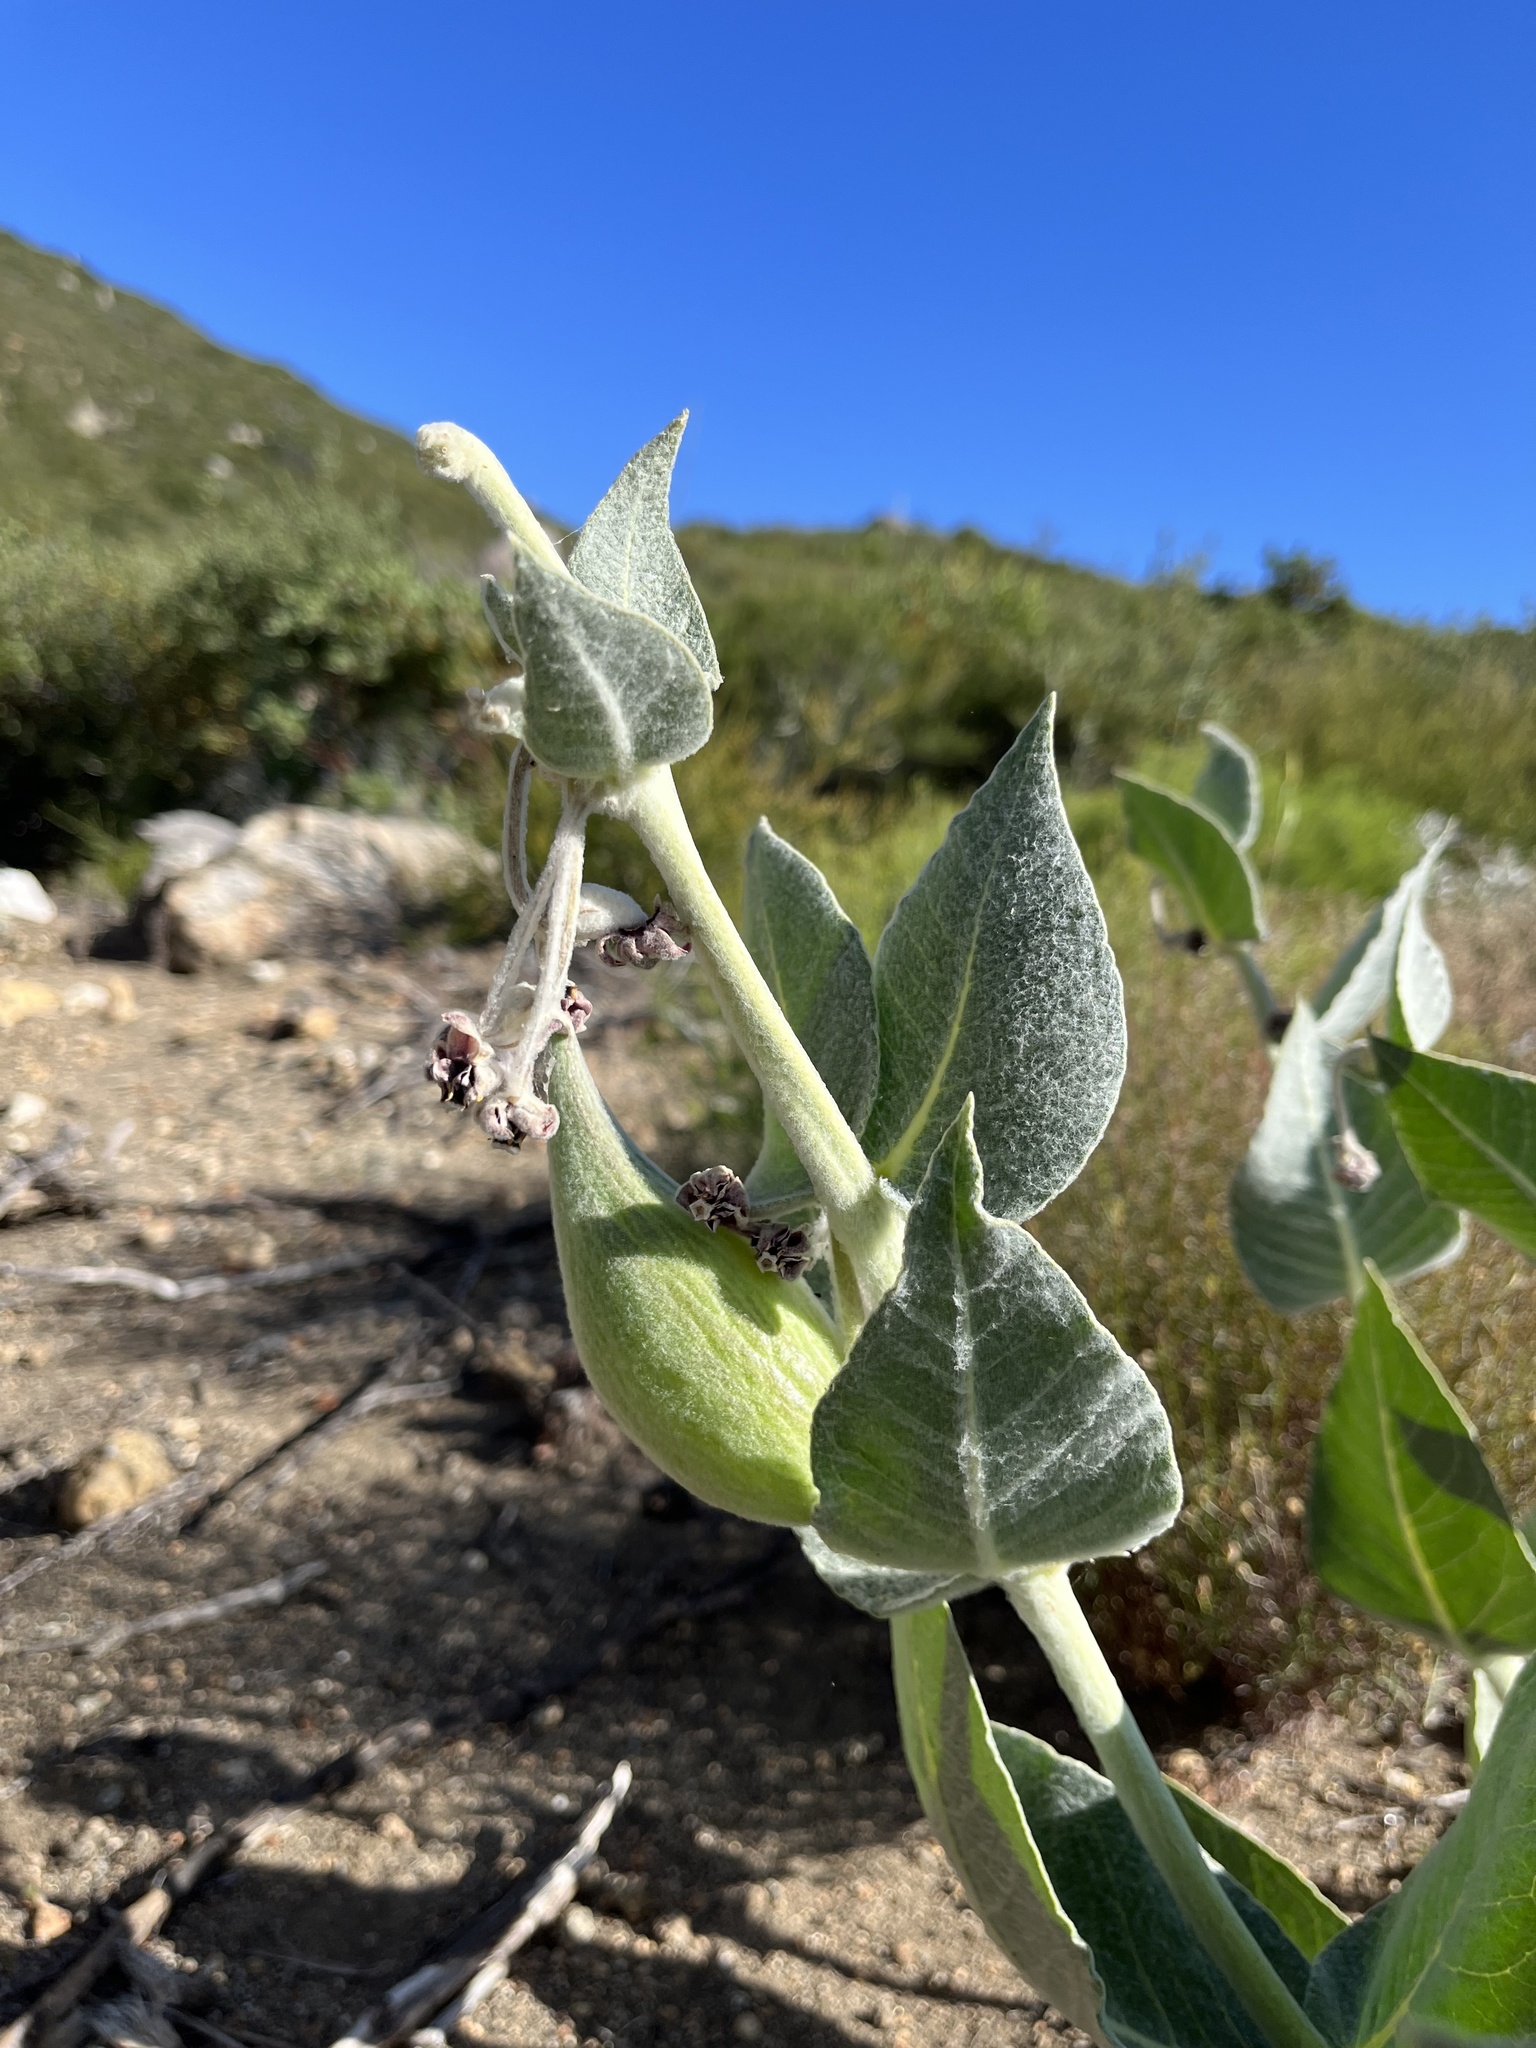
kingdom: Plantae
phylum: Tracheophyta
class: Magnoliopsida
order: Gentianales
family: Apocynaceae
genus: Asclepias
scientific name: Asclepias californica
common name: California milkweed
